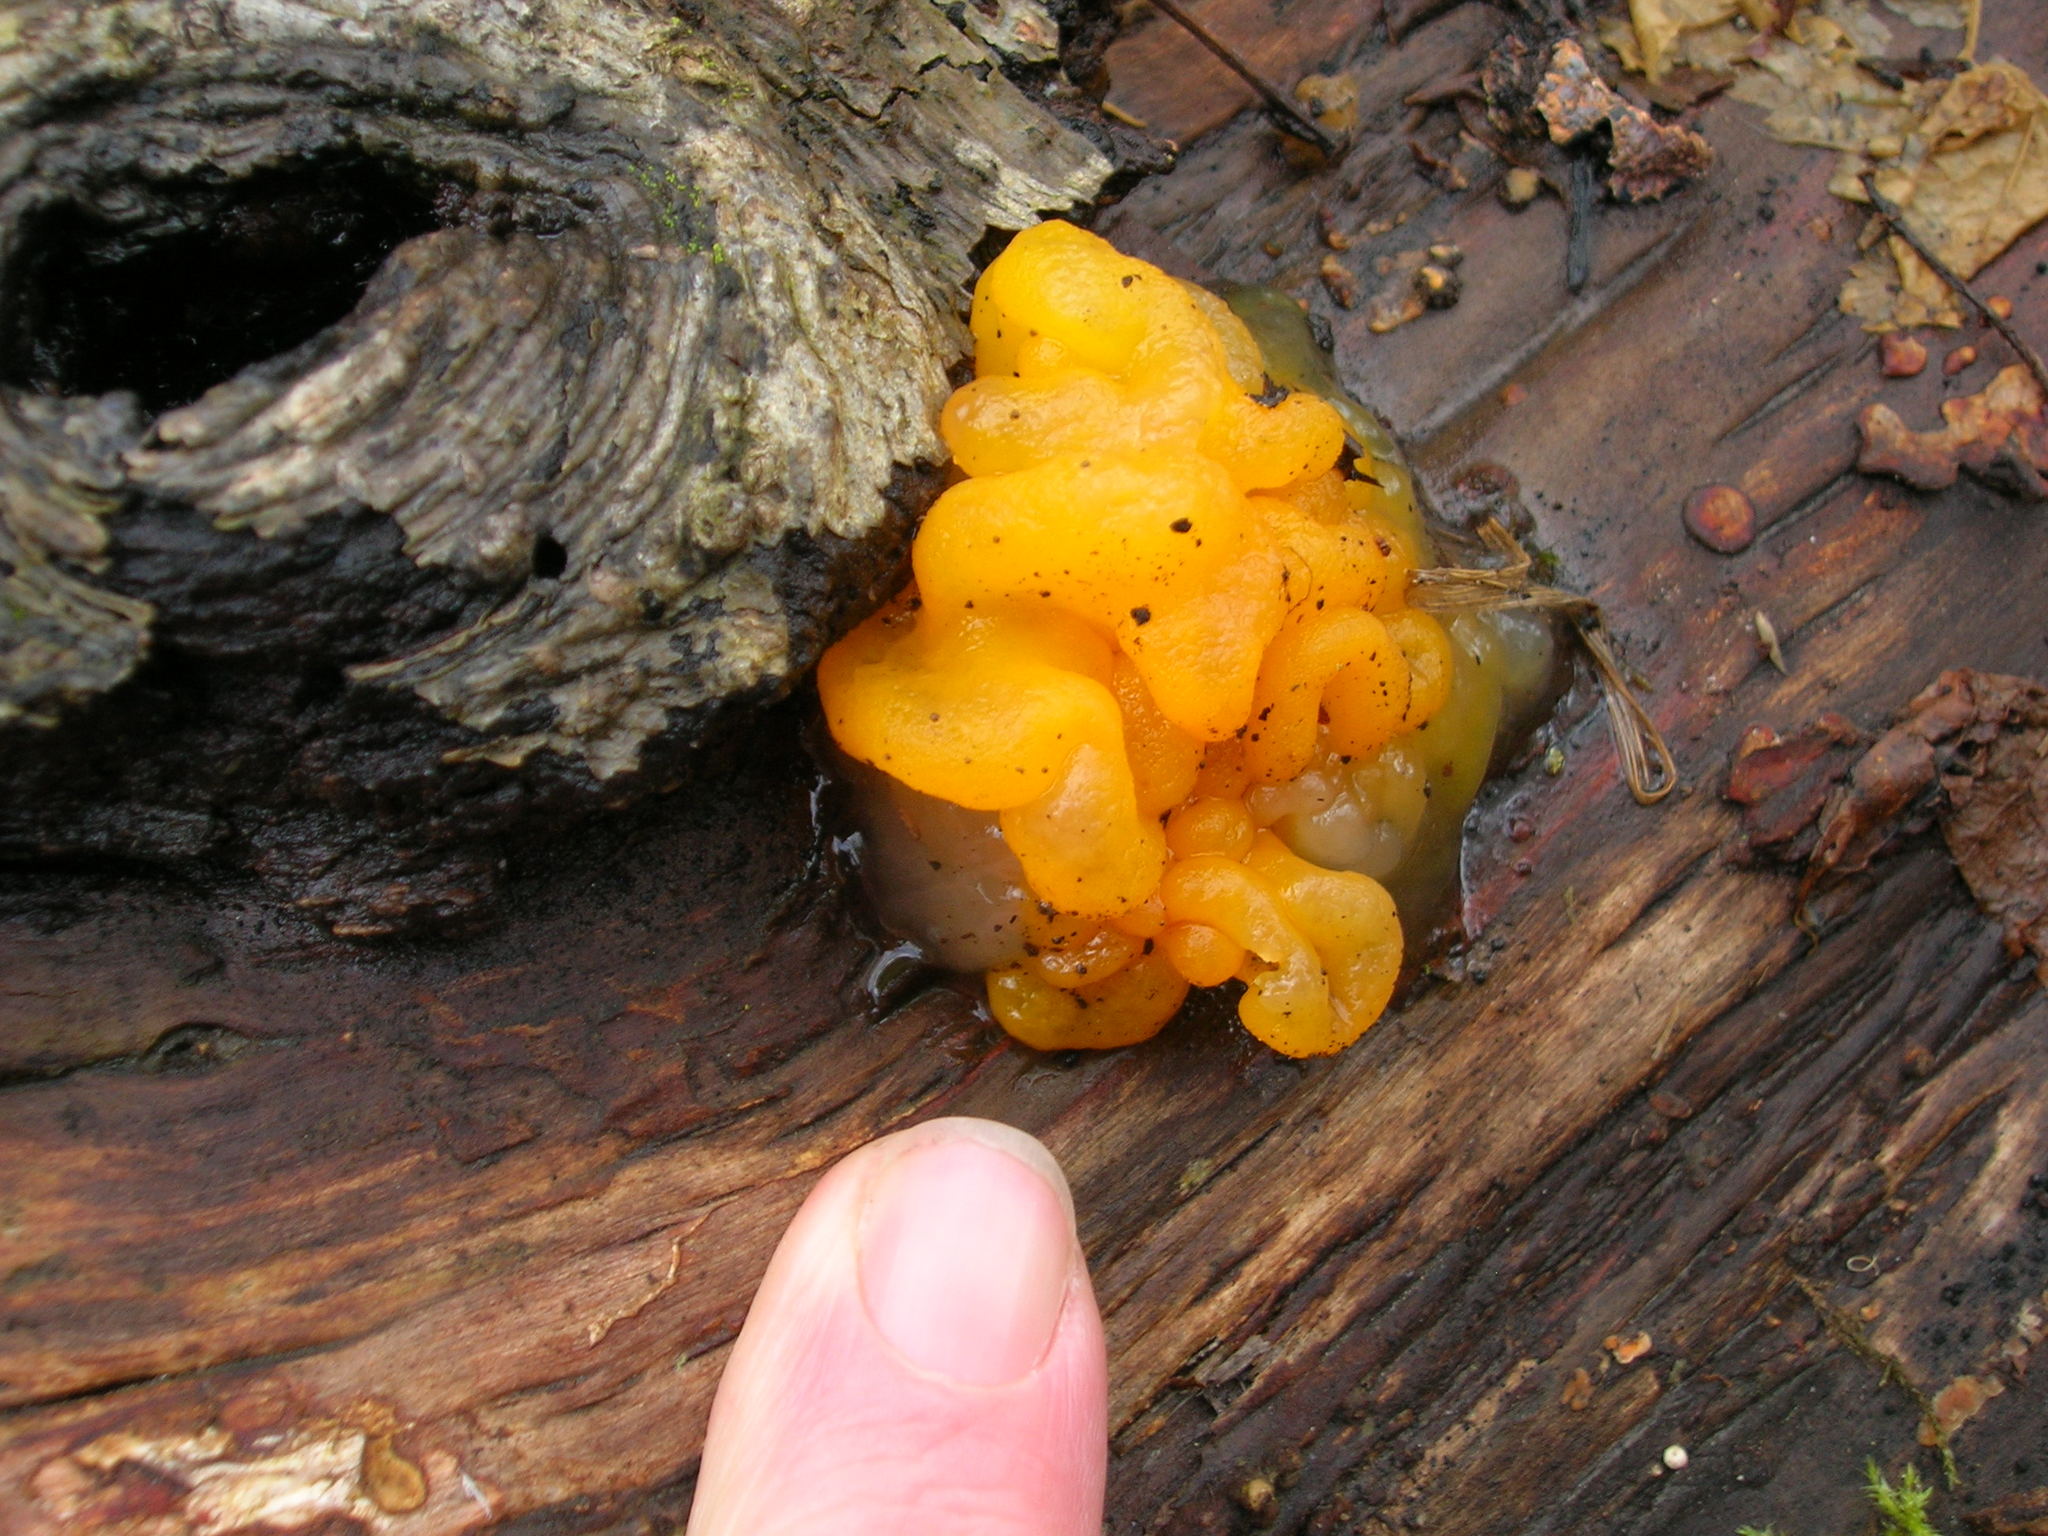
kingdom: Fungi
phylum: Basidiomycota
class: Dacrymycetes
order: Dacrymycetales
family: Dacrymycetaceae
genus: Dacrymyces
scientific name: Dacrymyces chrysospermus
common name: Orange jelly spot
